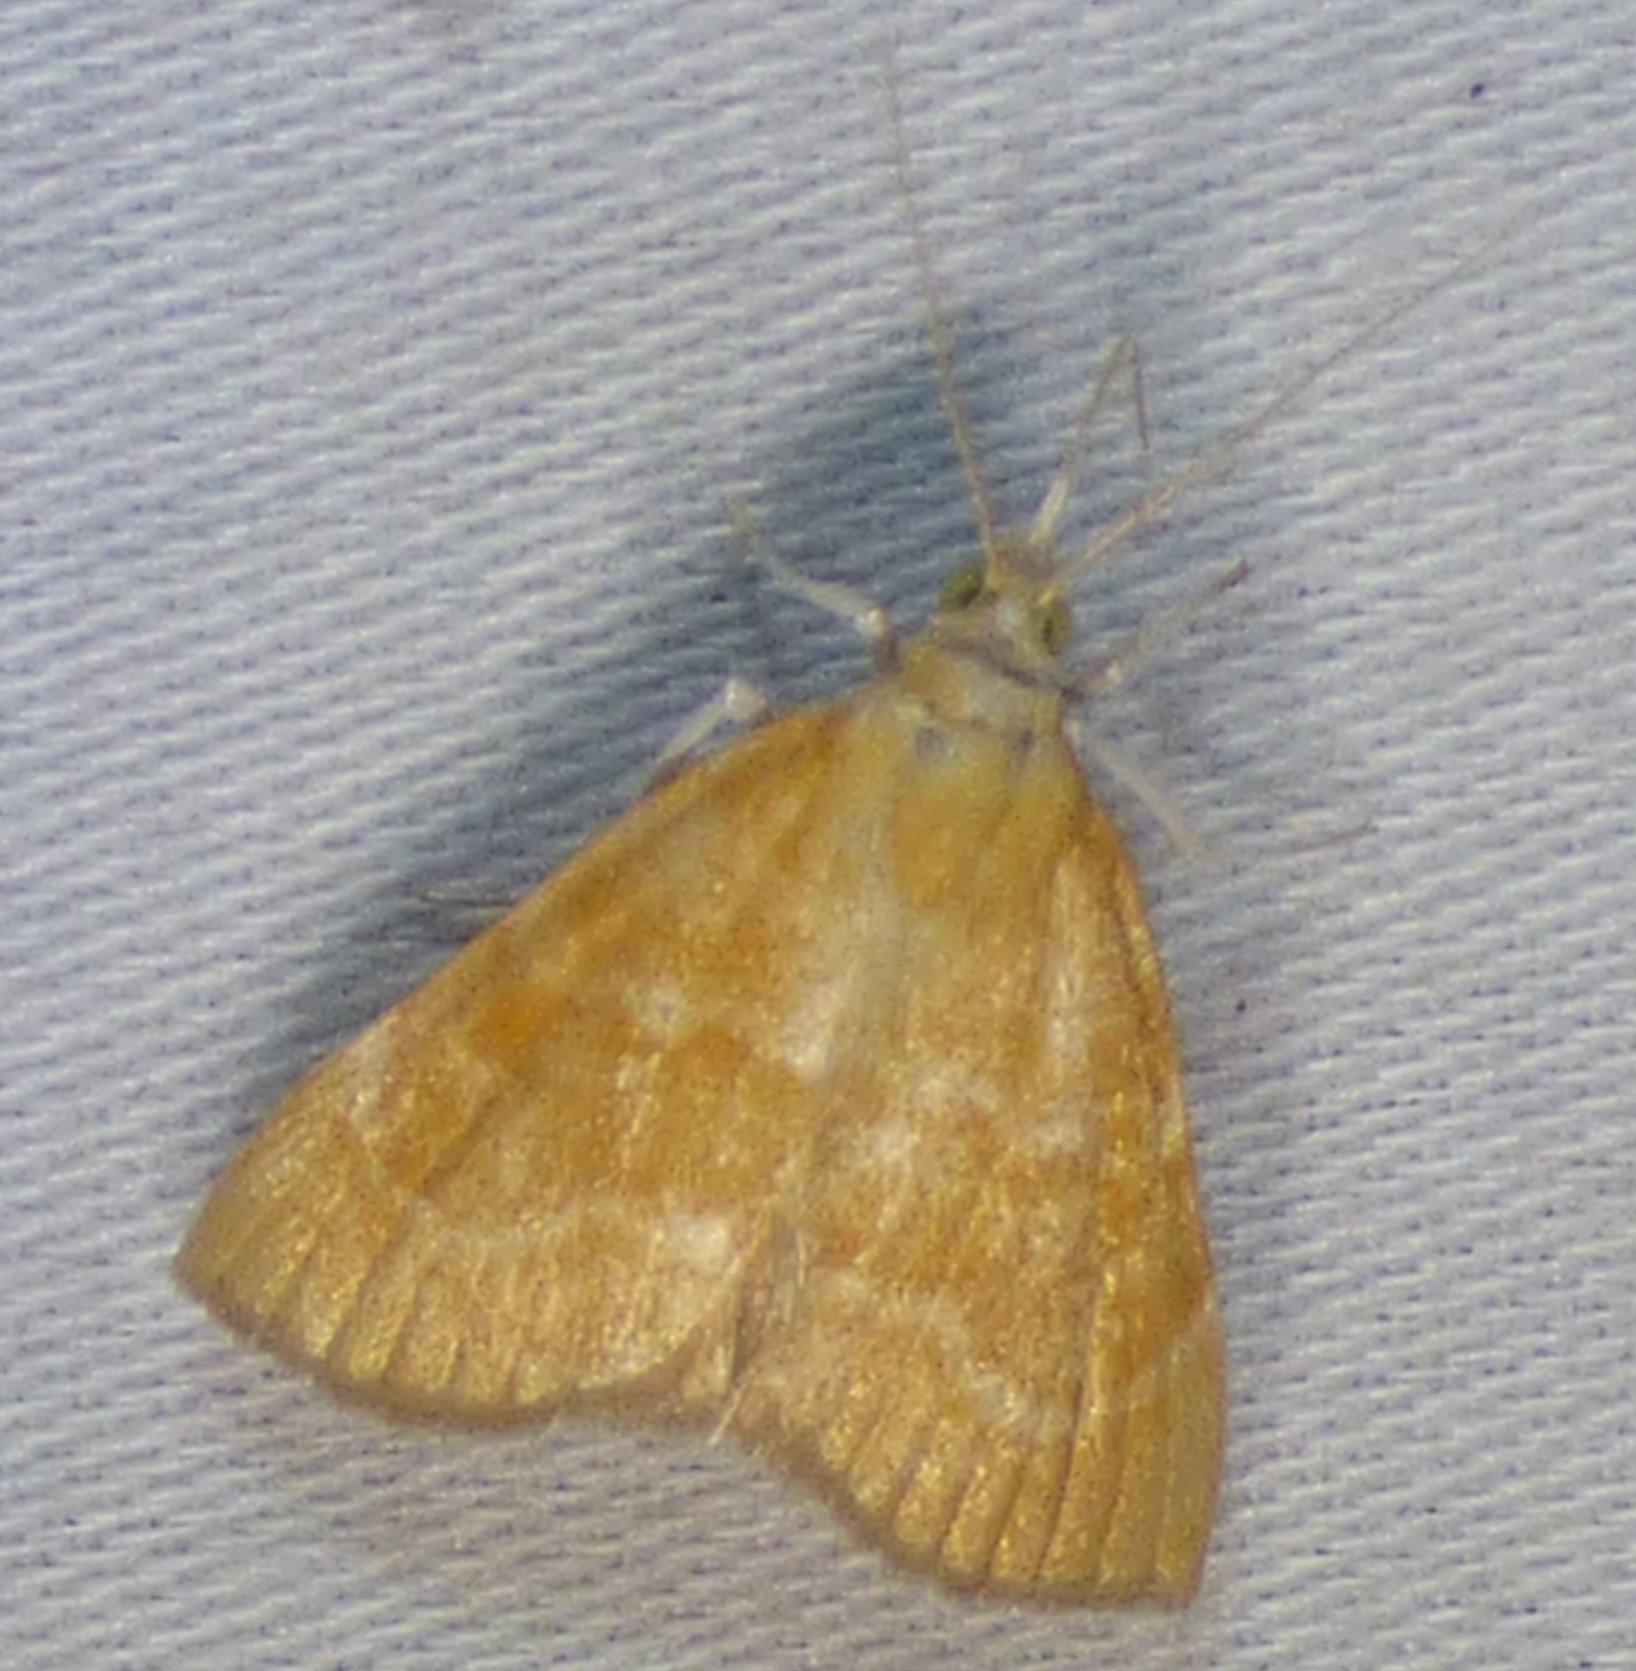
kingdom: Animalia
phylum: Arthropoda
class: Insecta
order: Lepidoptera
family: Crambidae
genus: Glaphyria
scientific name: Glaphyria invisalis
